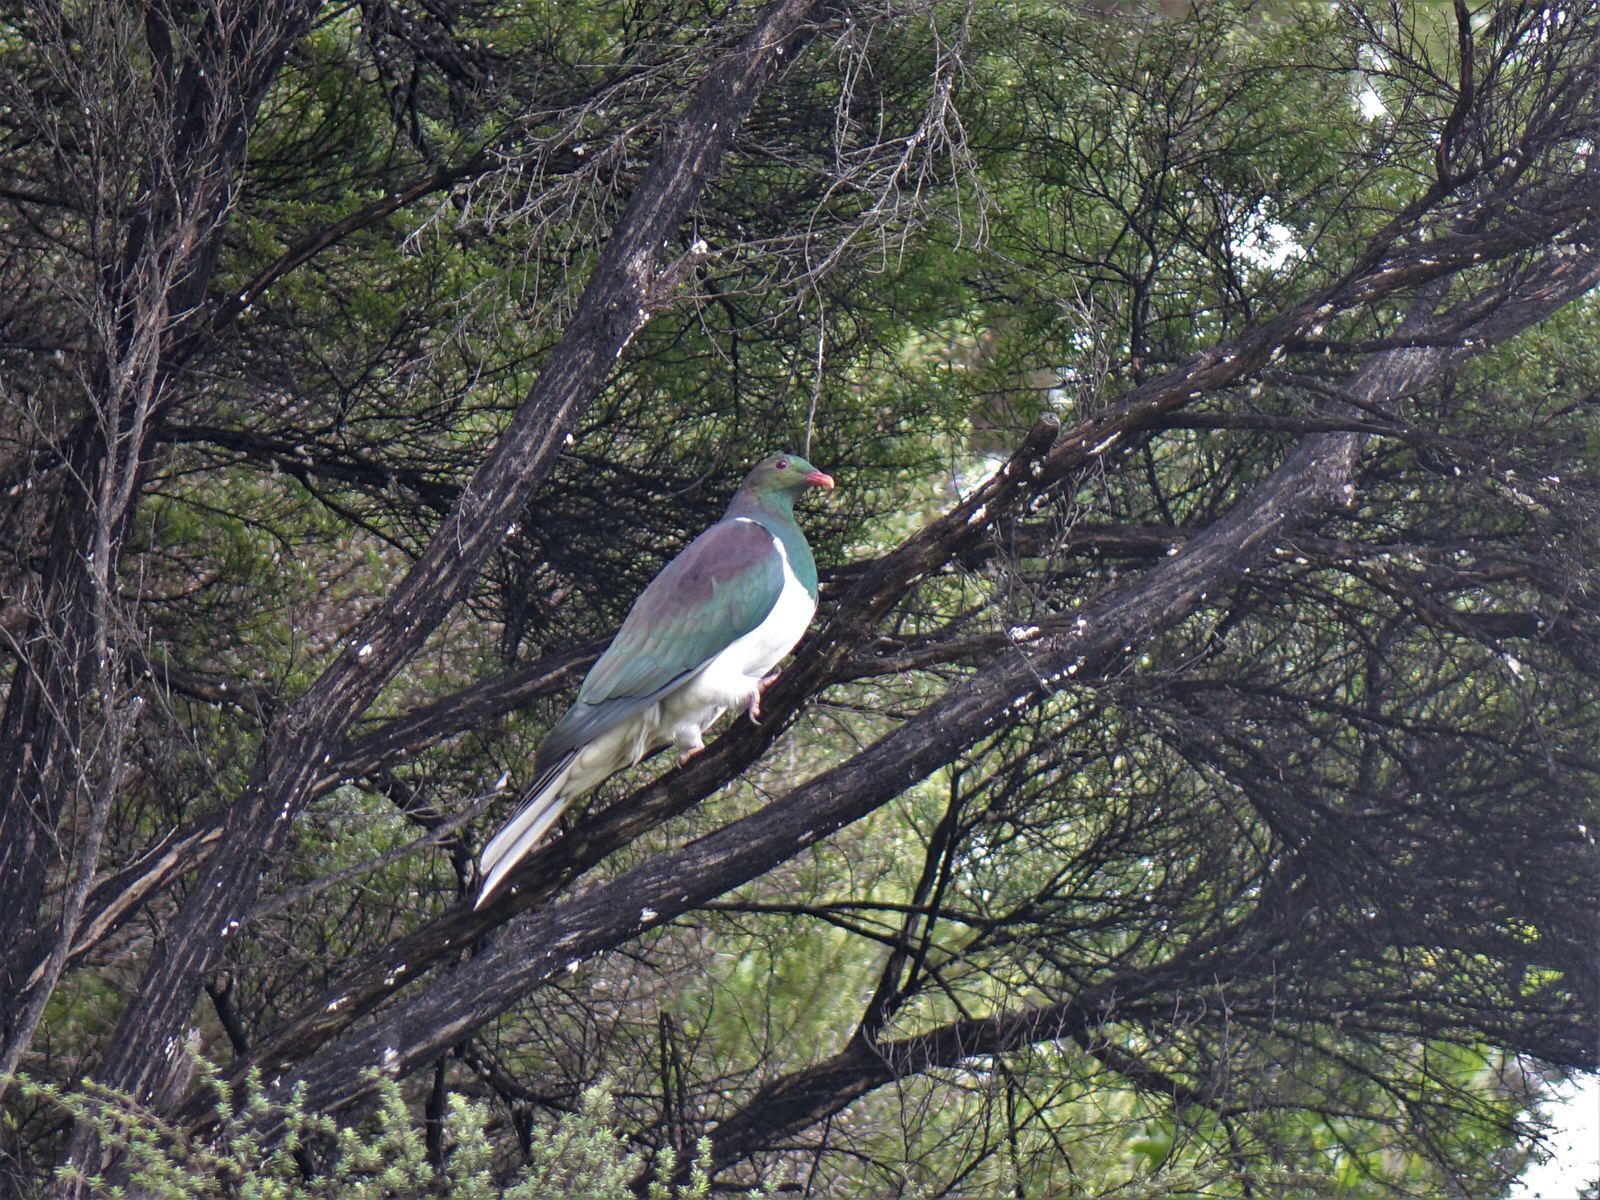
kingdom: Animalia
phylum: Chordata
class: Aves
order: Columbiformes
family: Columbidae
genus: Hemiphaga
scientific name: Hemiphaga novaeseelandiae
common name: New zealand pigeon
